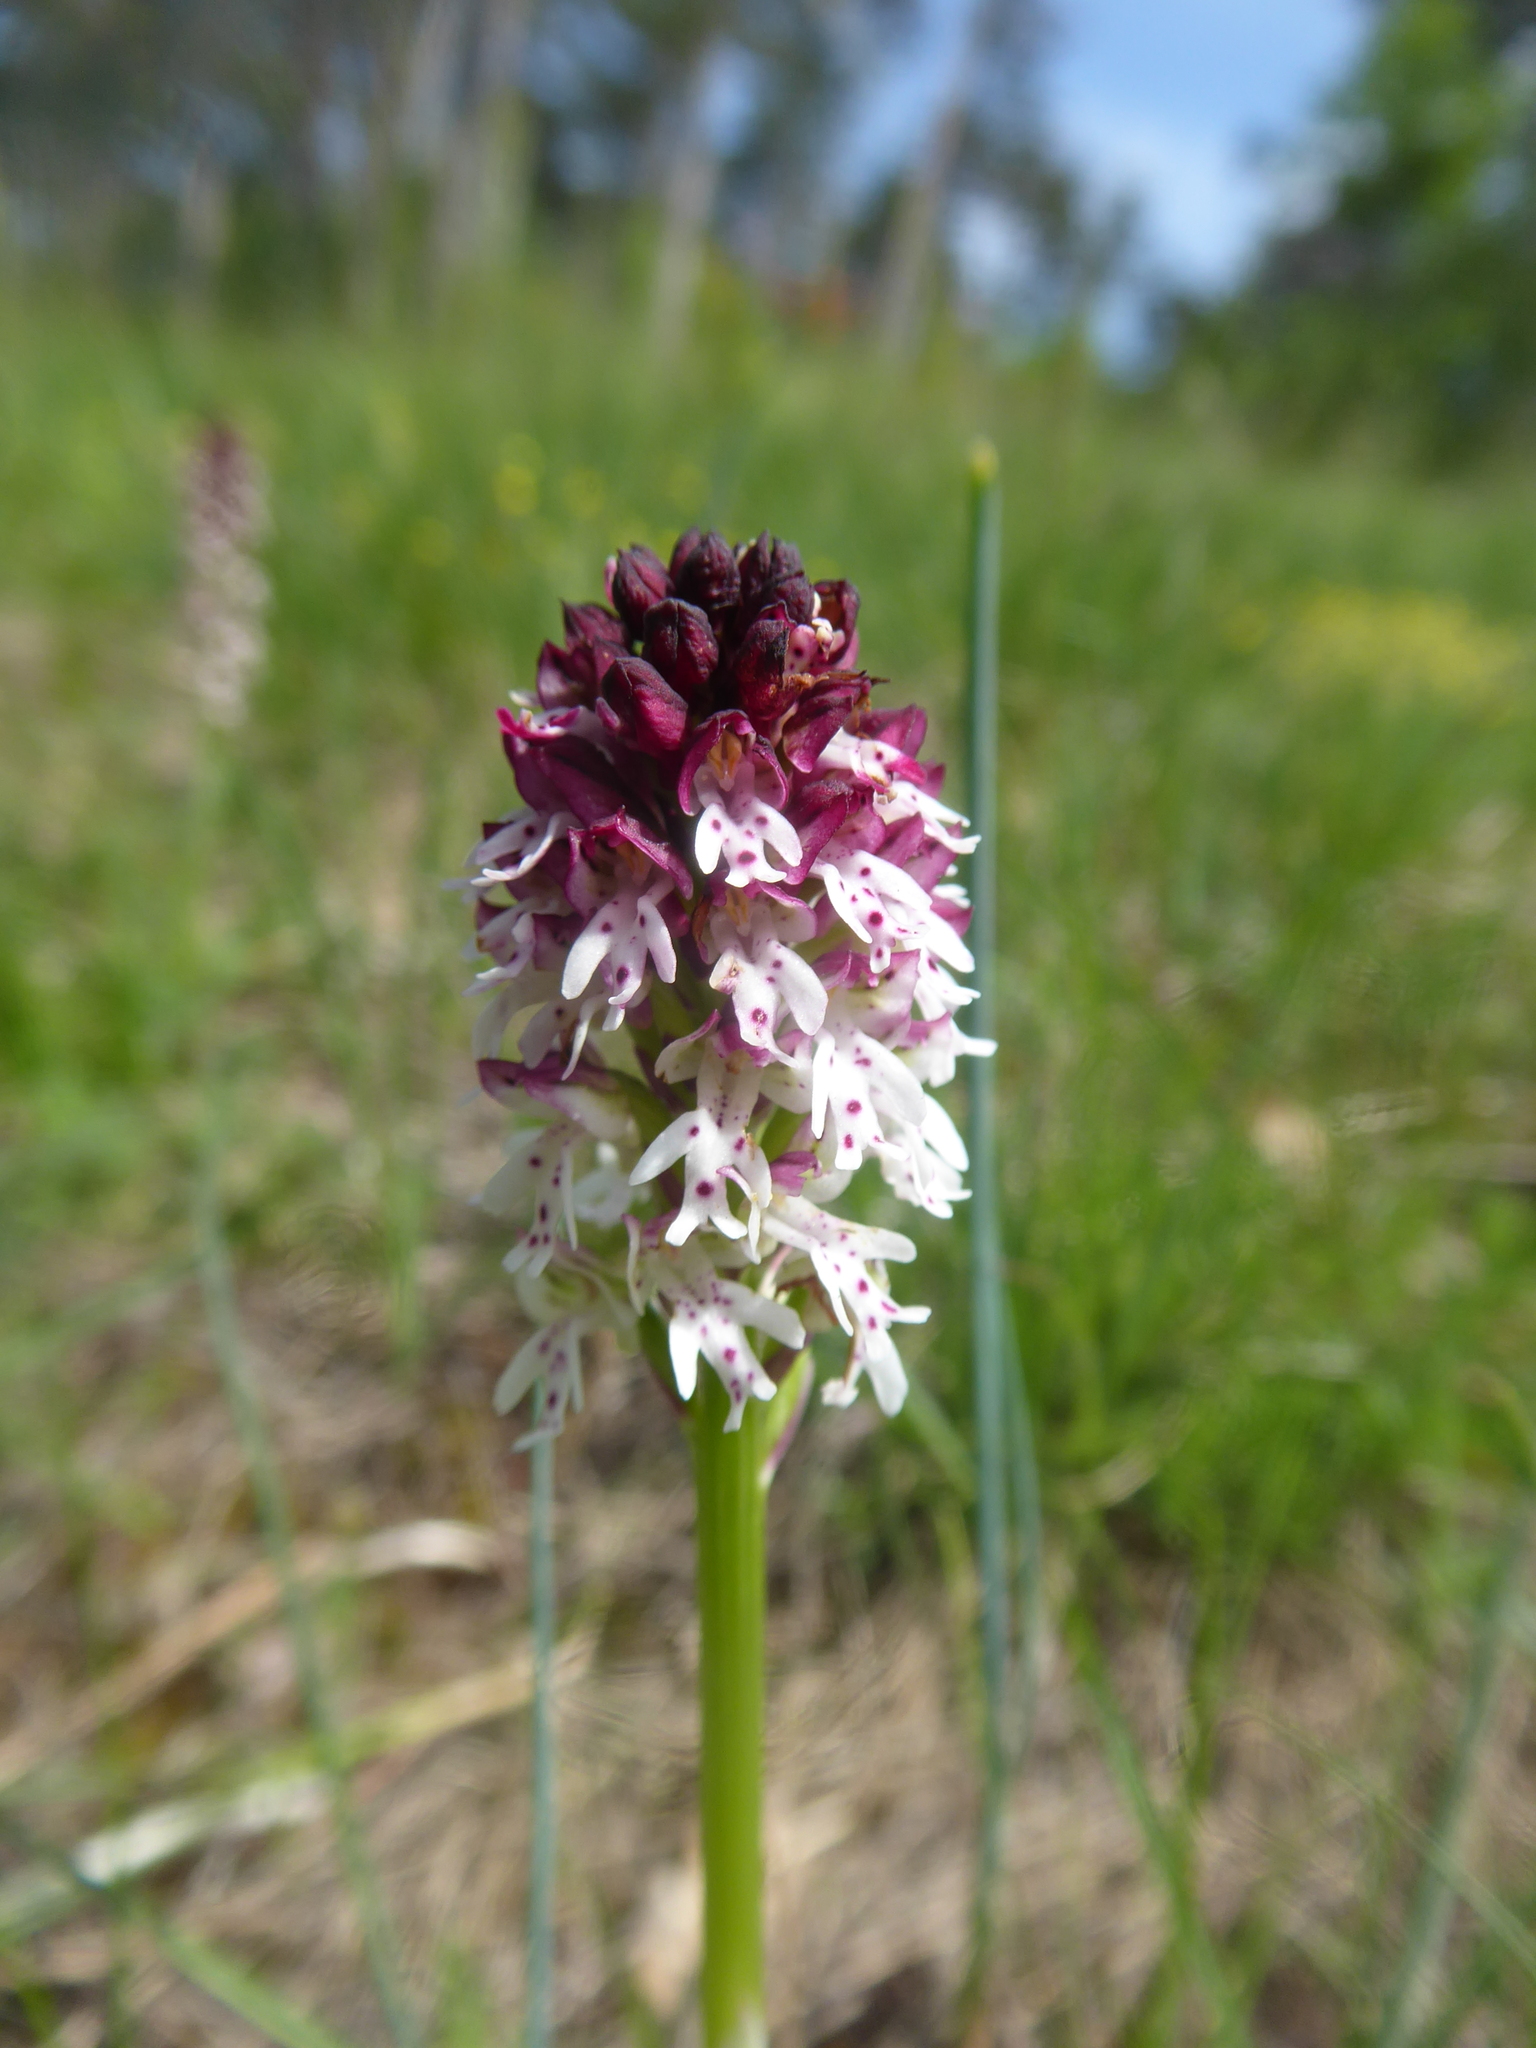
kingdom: Plantae
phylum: Tracheophyta
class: Liliopsida
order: Asparagales
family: Orchidaceae
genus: Neotinea
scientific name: Neotinea ustulata
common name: Burnt orchid
